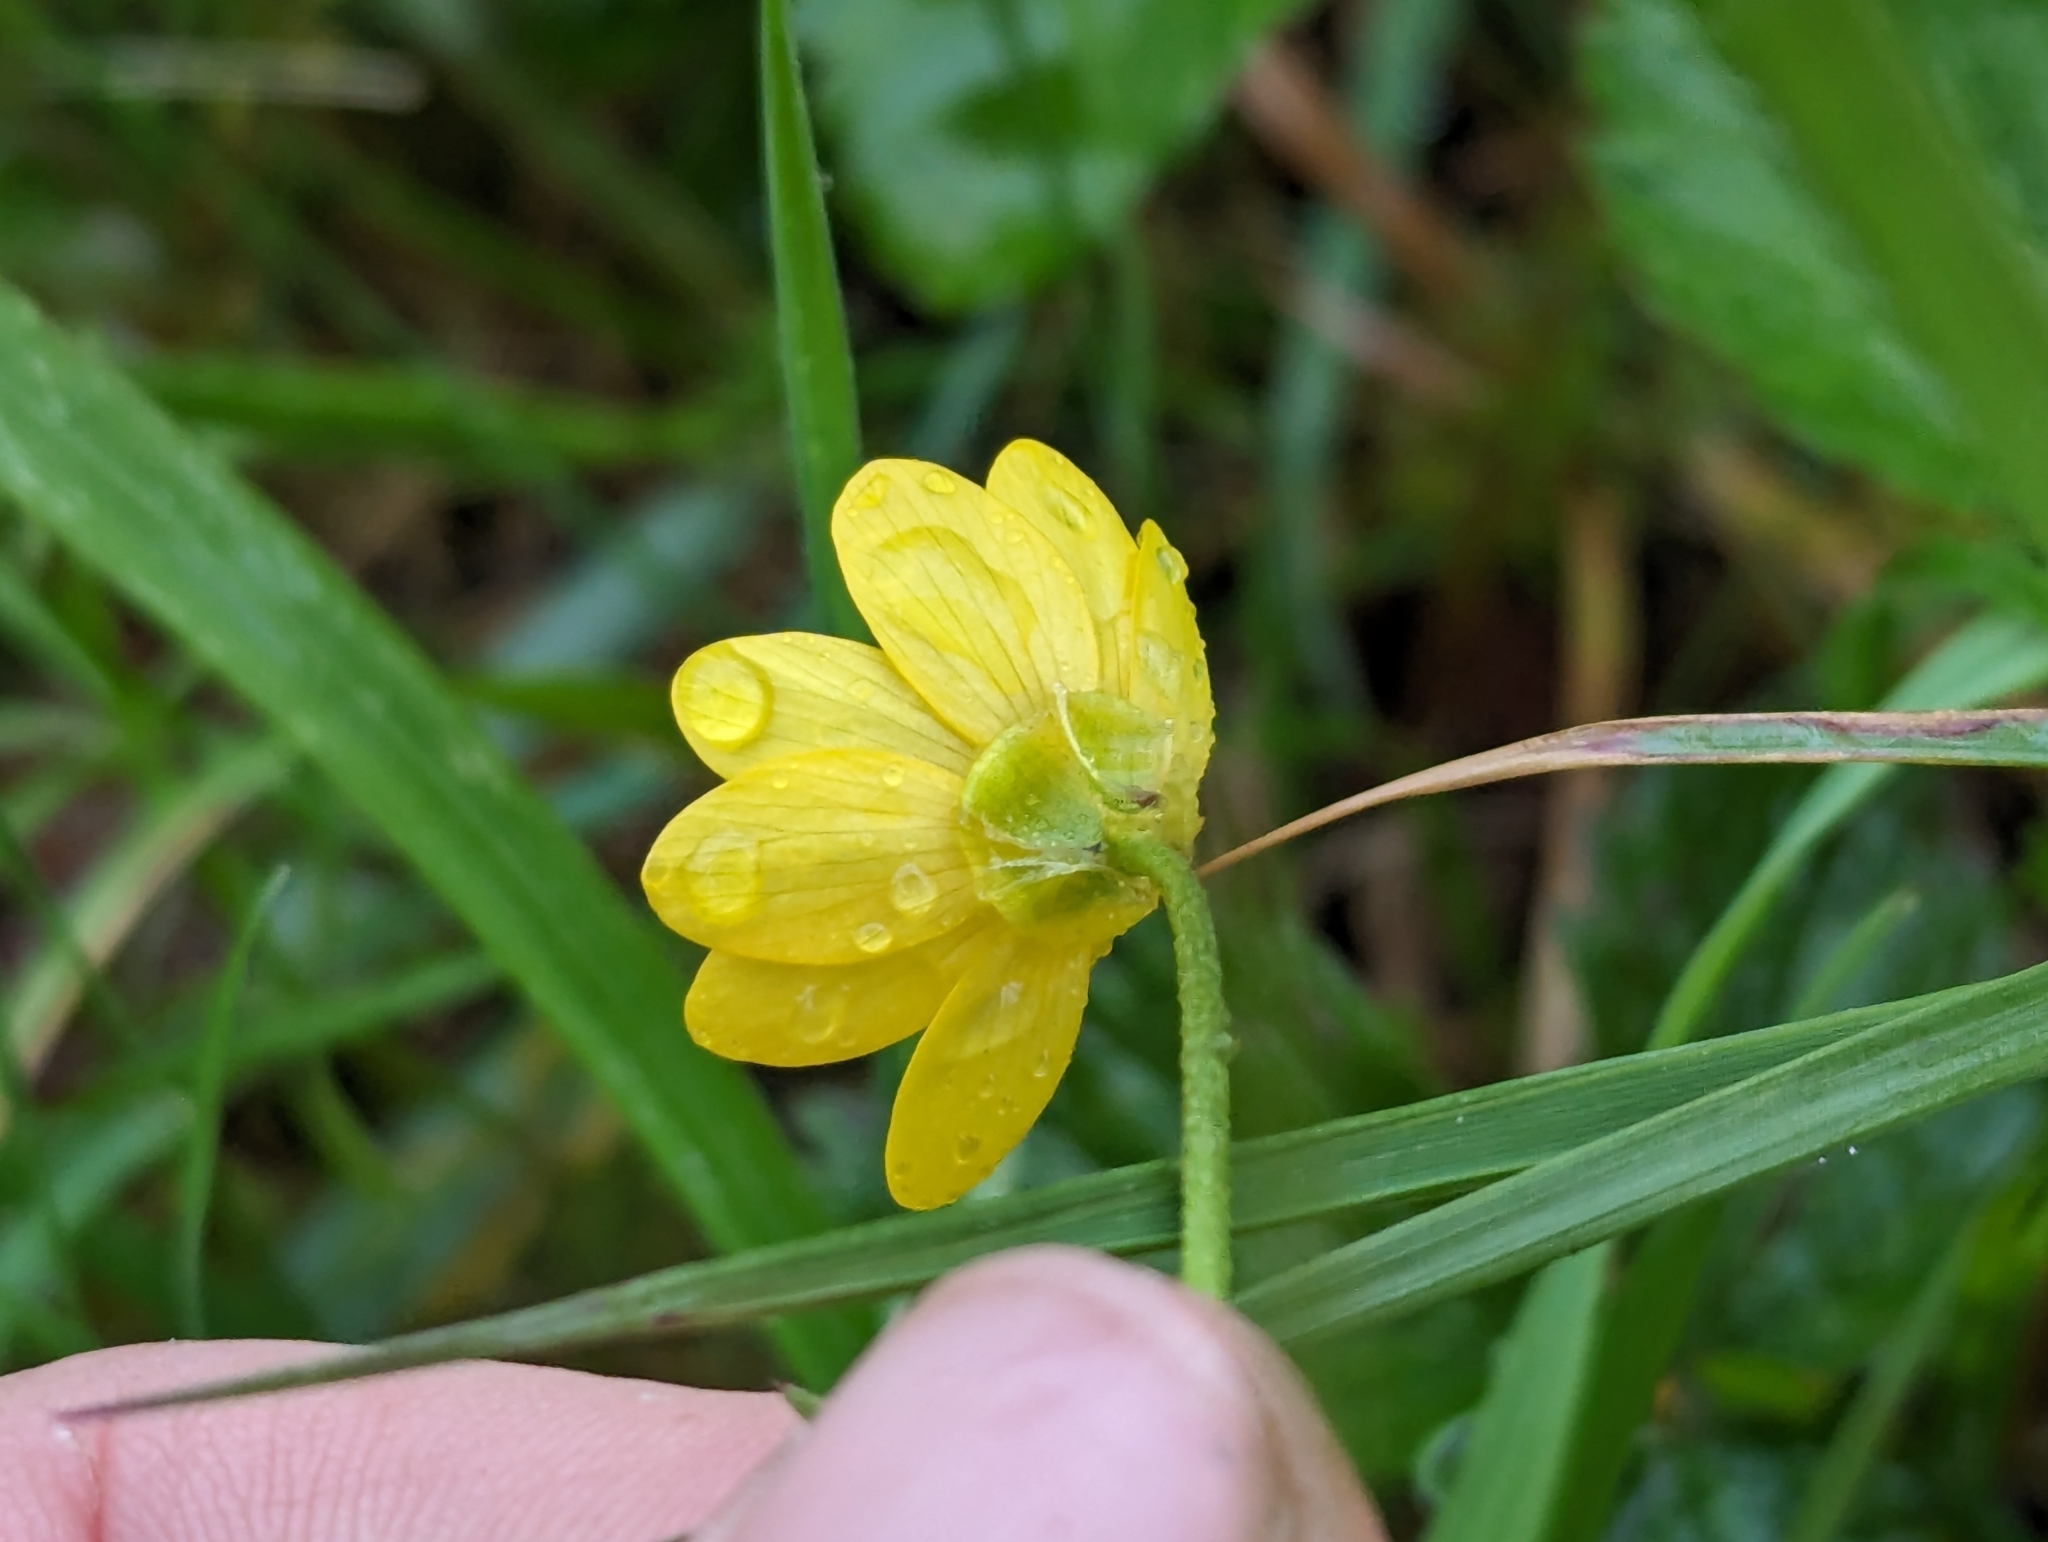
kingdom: Plantae
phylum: Tracheophyta
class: Magnoliopsida
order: Ranunculales
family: Ranunculaceae
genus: Ranunculus
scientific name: Ranunculus californicus
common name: California buttercup
